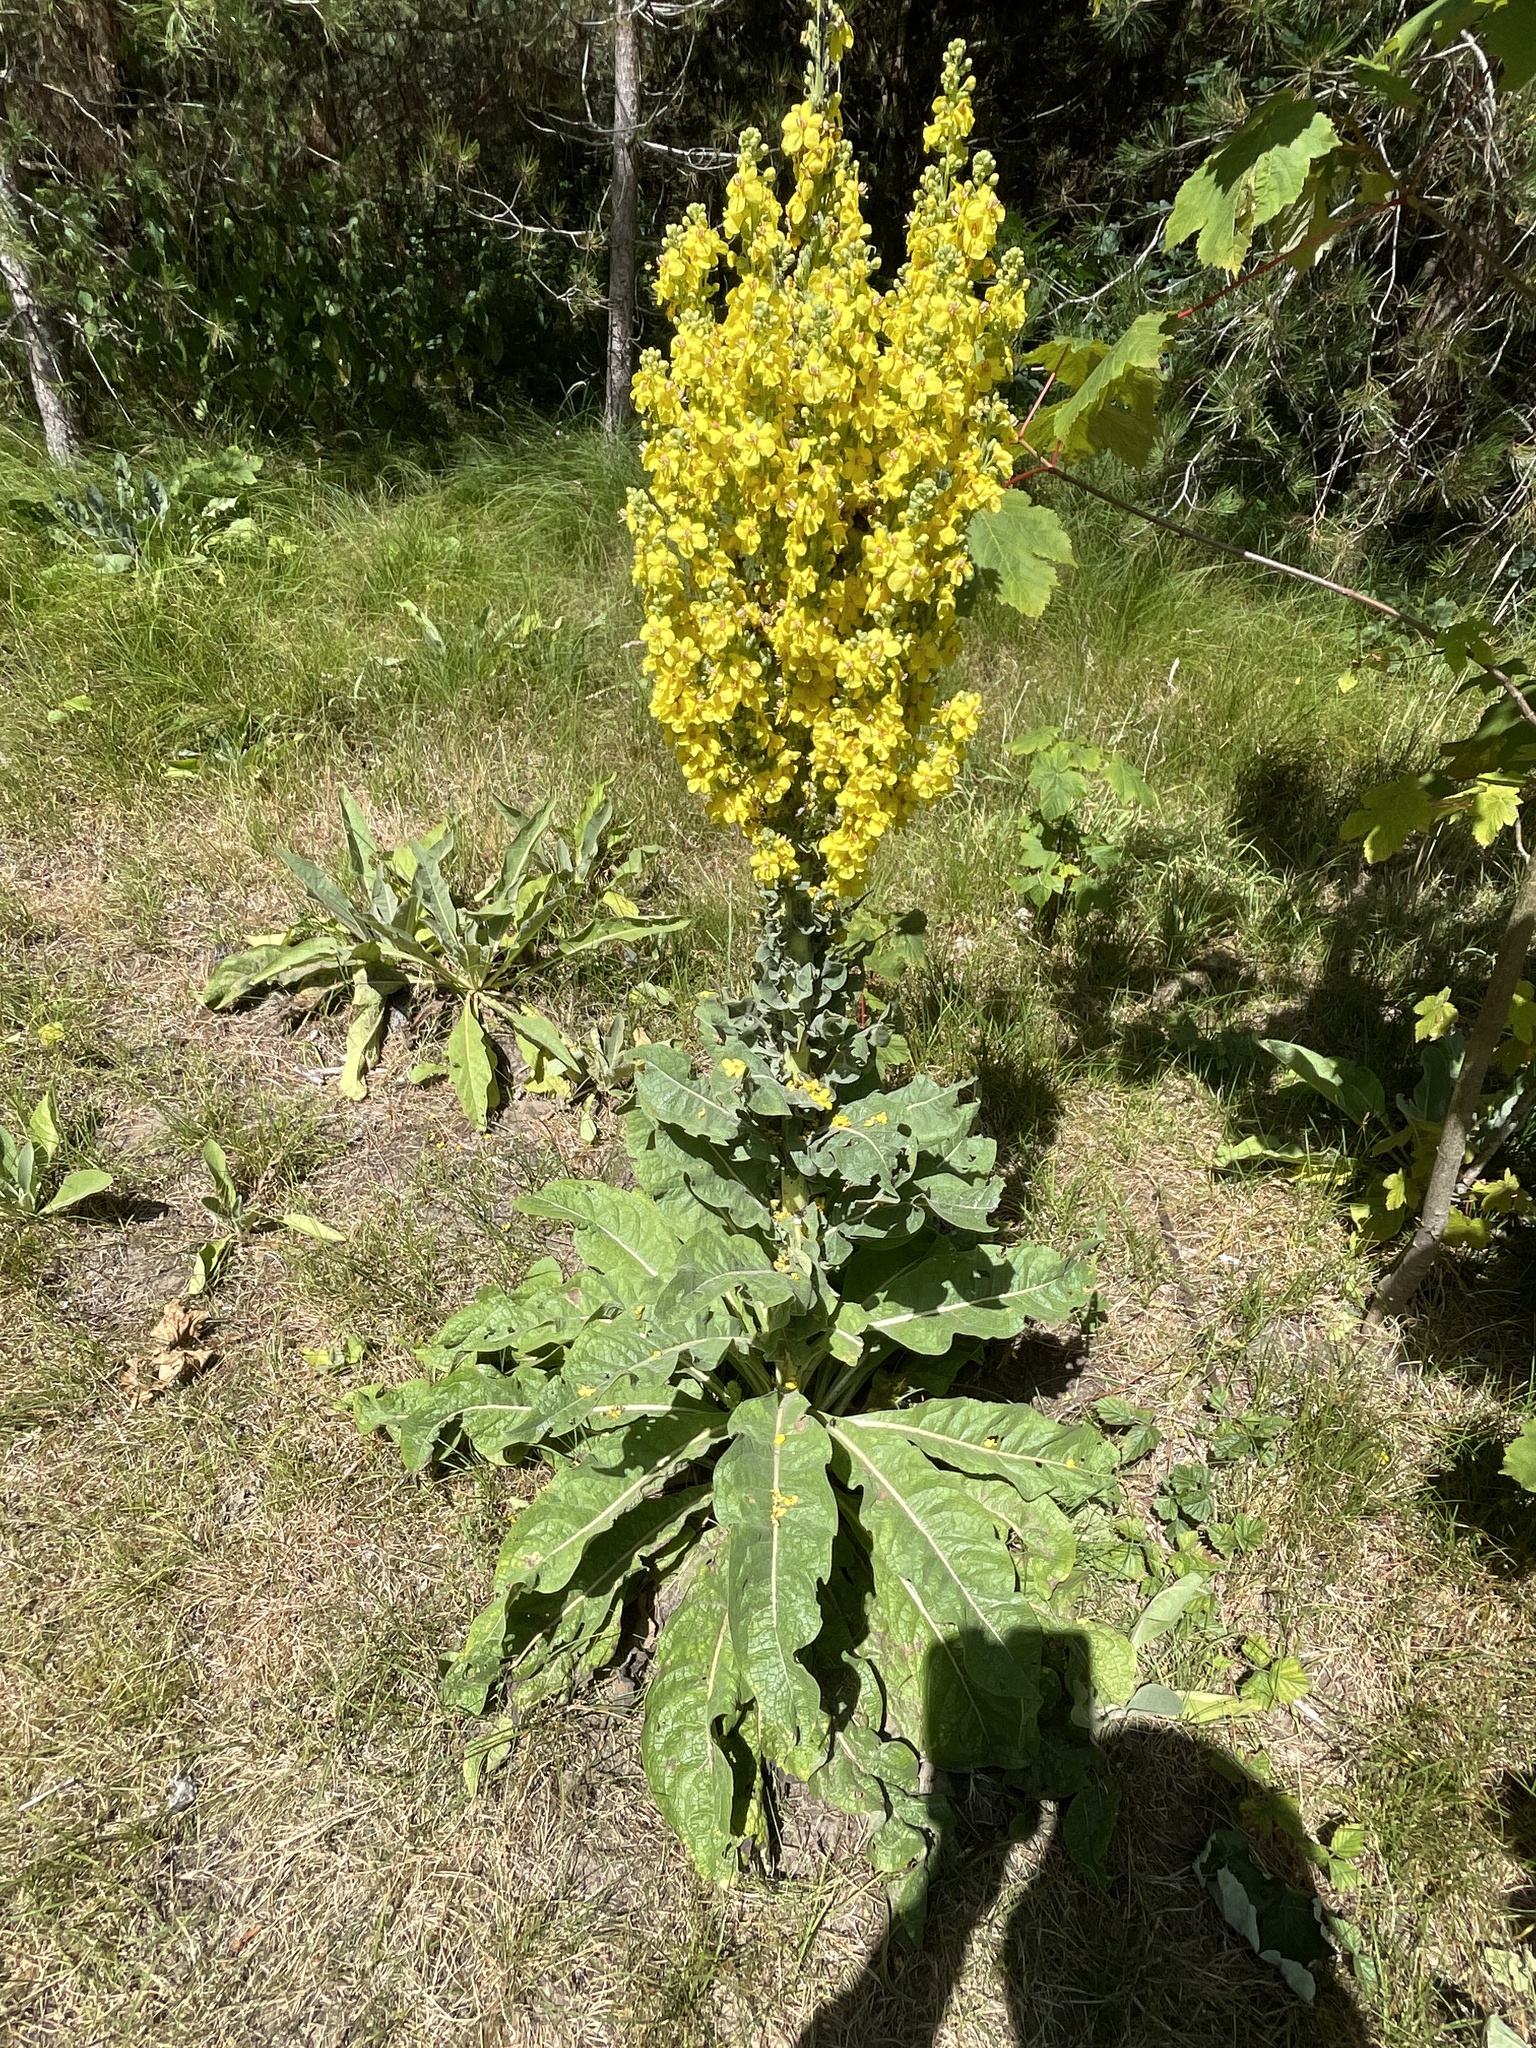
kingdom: Plantae
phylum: Tracheophyta
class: Magnoliopsida
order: Lamiales
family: Scrophulariaceae
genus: Verbascum
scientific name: Verbascum speciosum
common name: Hungarian mullein
